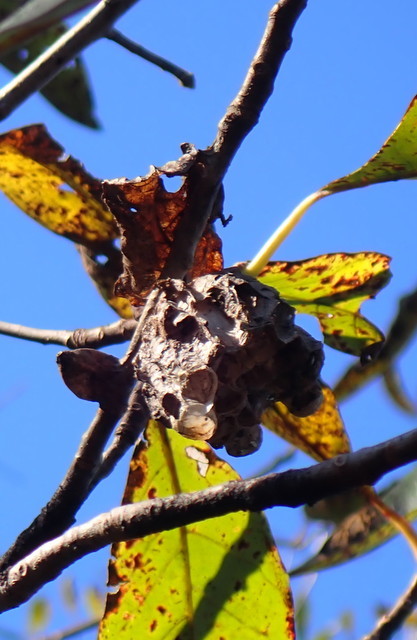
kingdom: Animalia
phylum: Arthropoda
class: Insecta
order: Hymenoptera
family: Vespidae
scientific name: Vespidae
